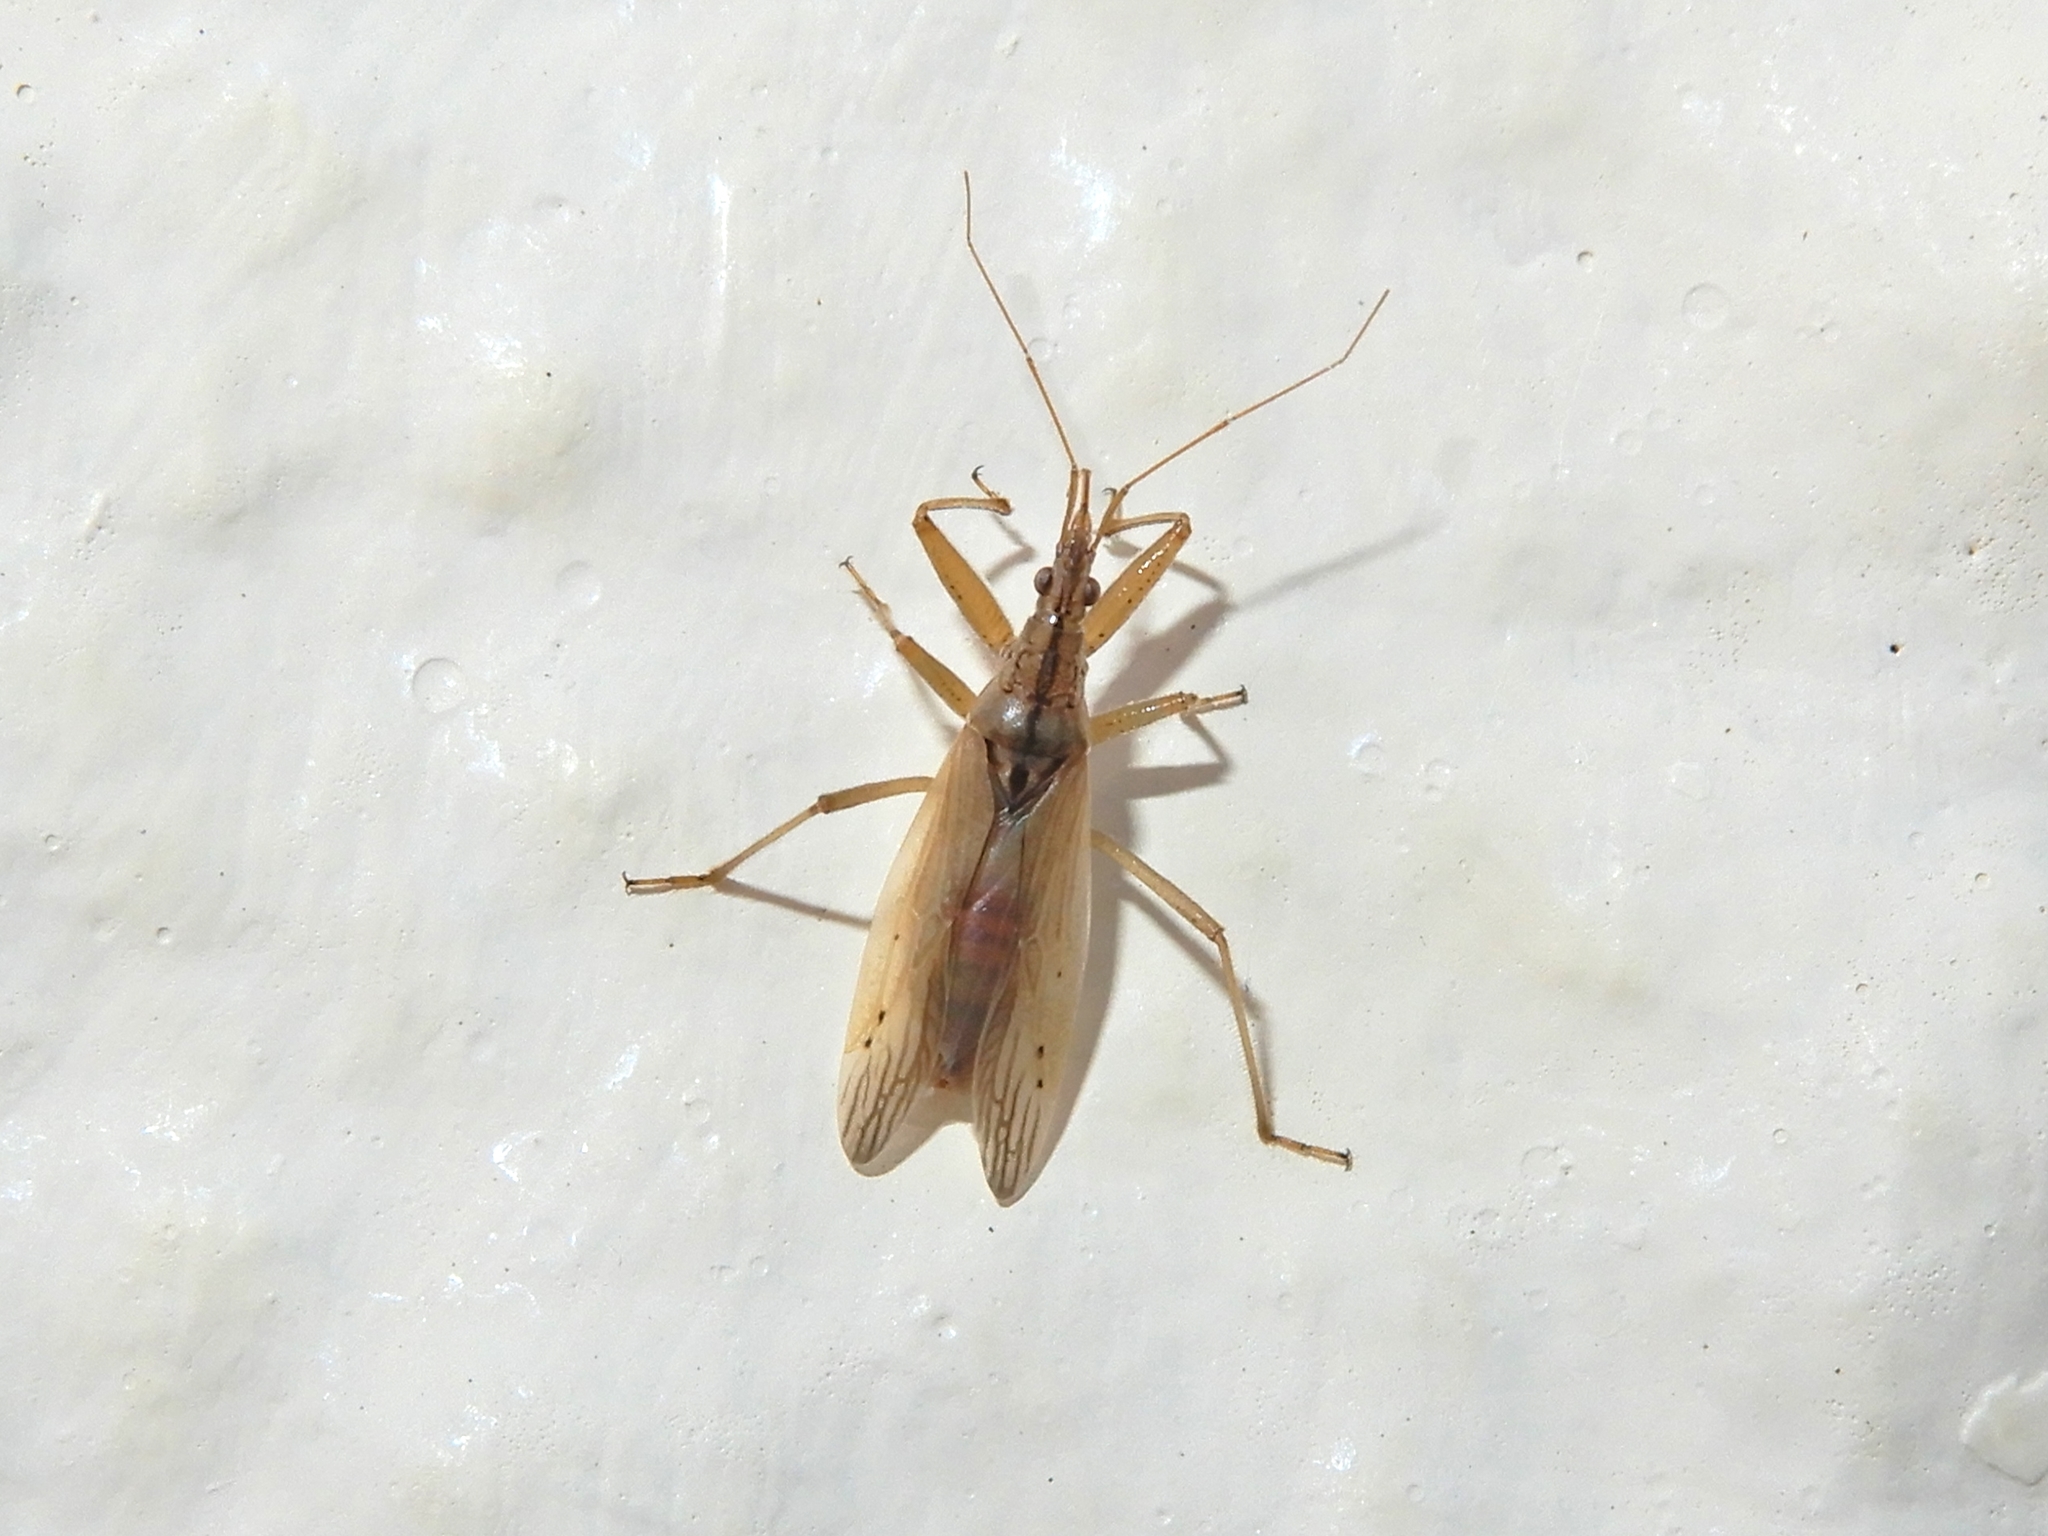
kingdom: Animalia
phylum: Arthropoda
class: Insecta
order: Hemiptera
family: Nabidae
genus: Nabis
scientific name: Nabis
